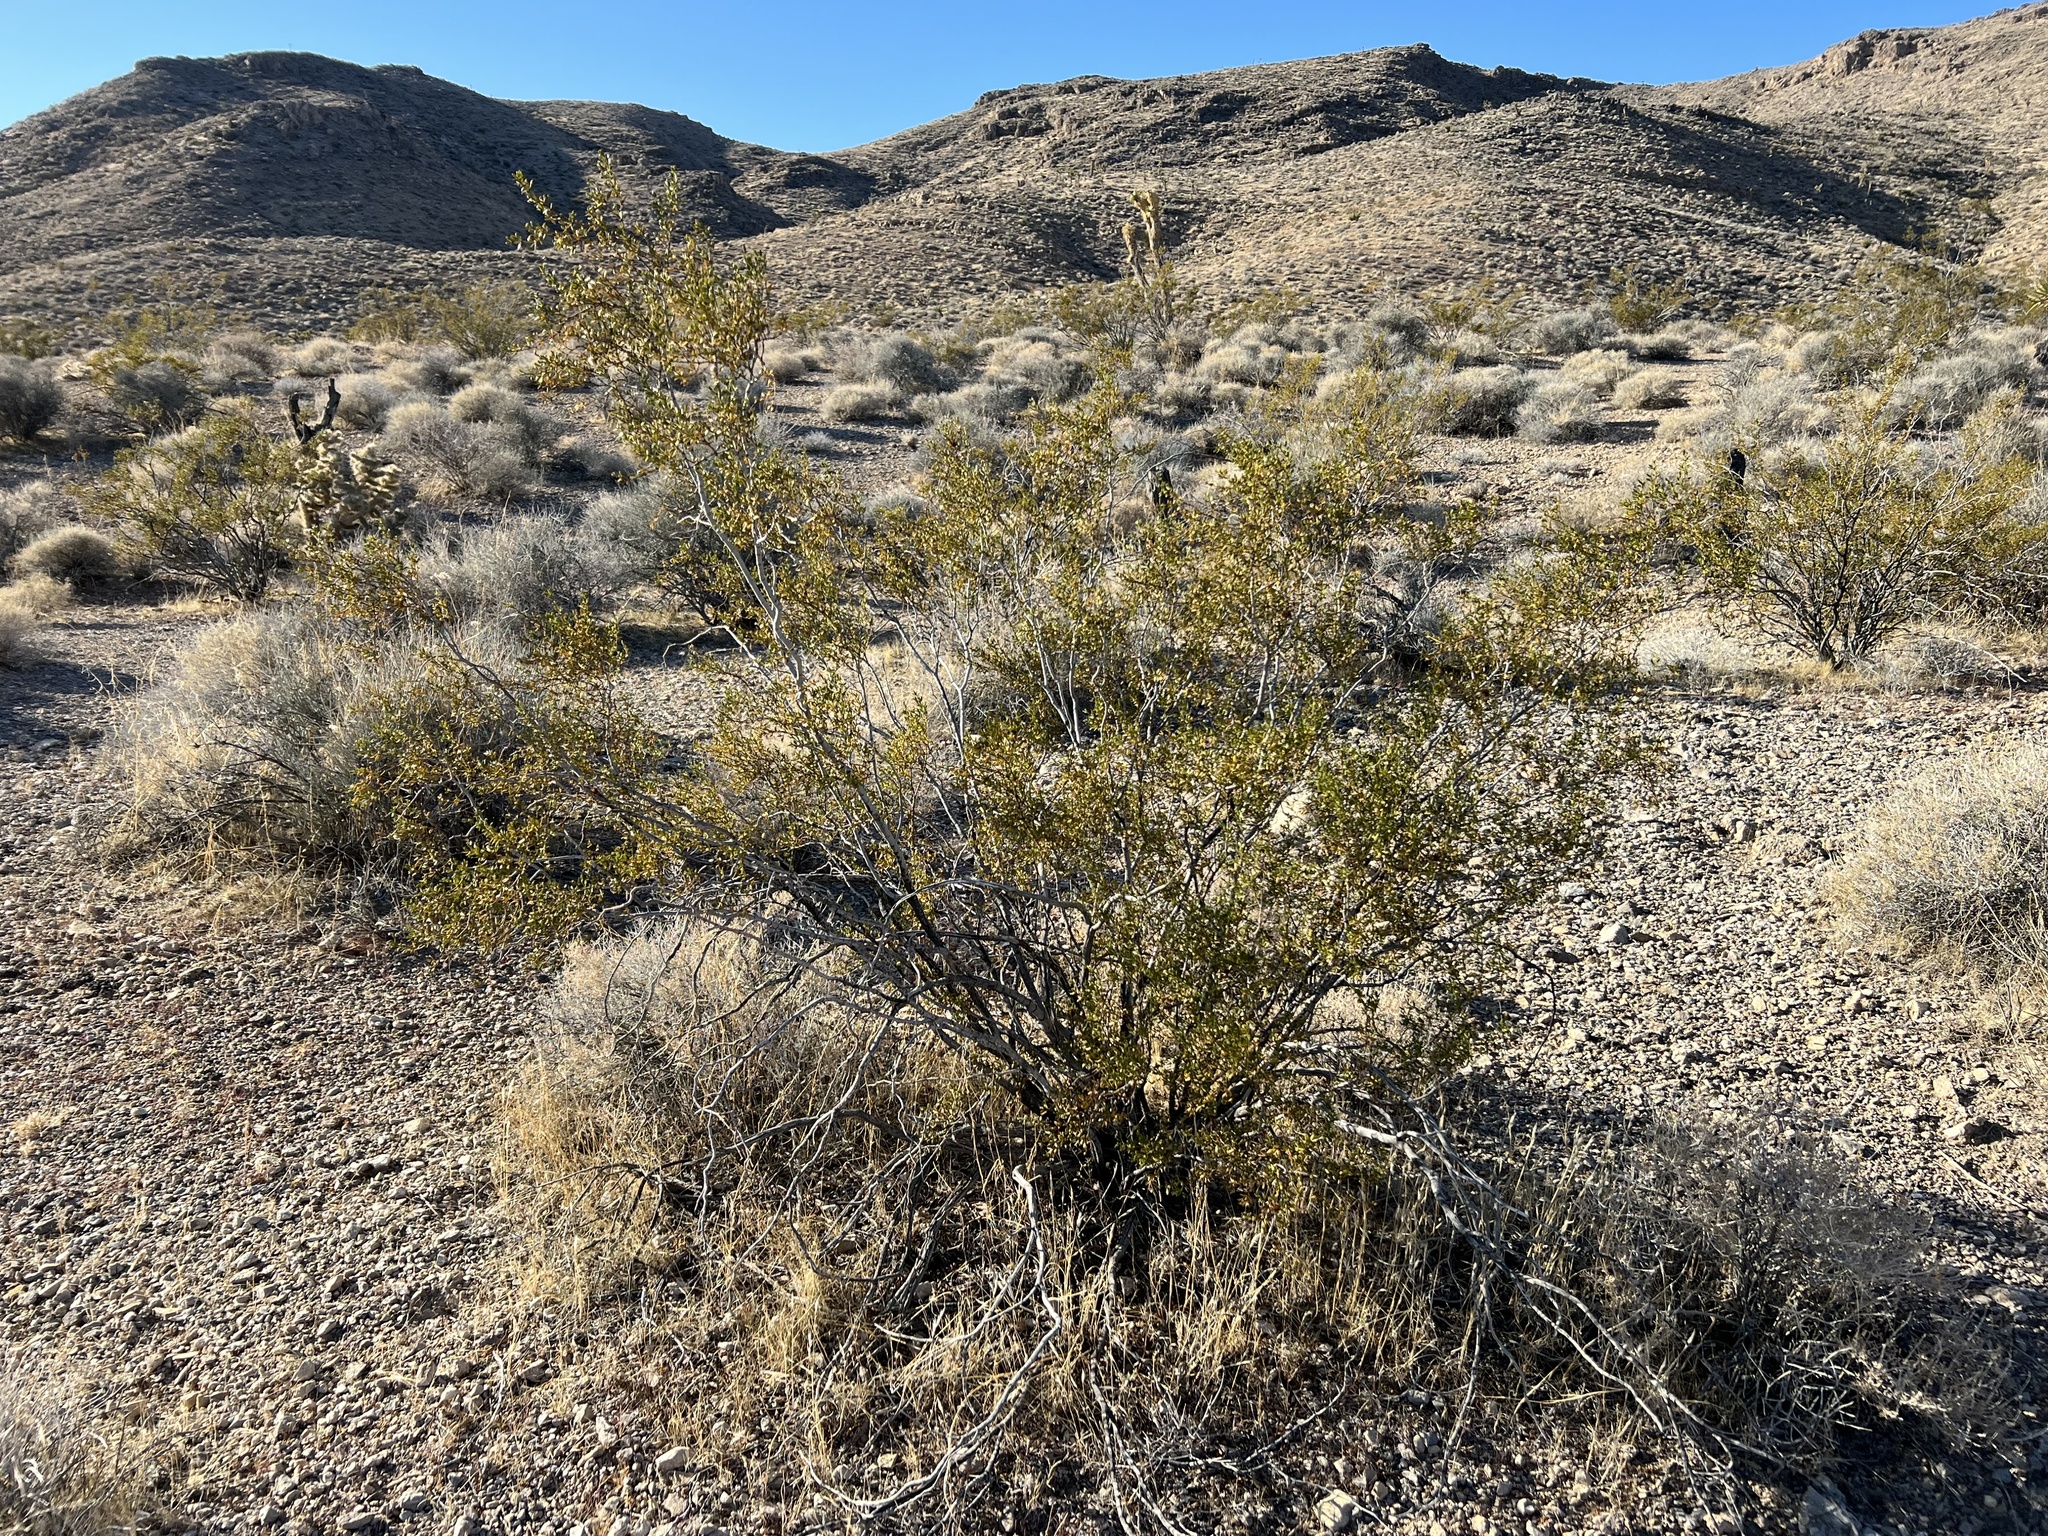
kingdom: Plantae
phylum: Tracheophyta
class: Magnoliopsida
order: Zygophyllales
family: Zygophyllaceae
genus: Larrea
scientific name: Larrea tridentata
